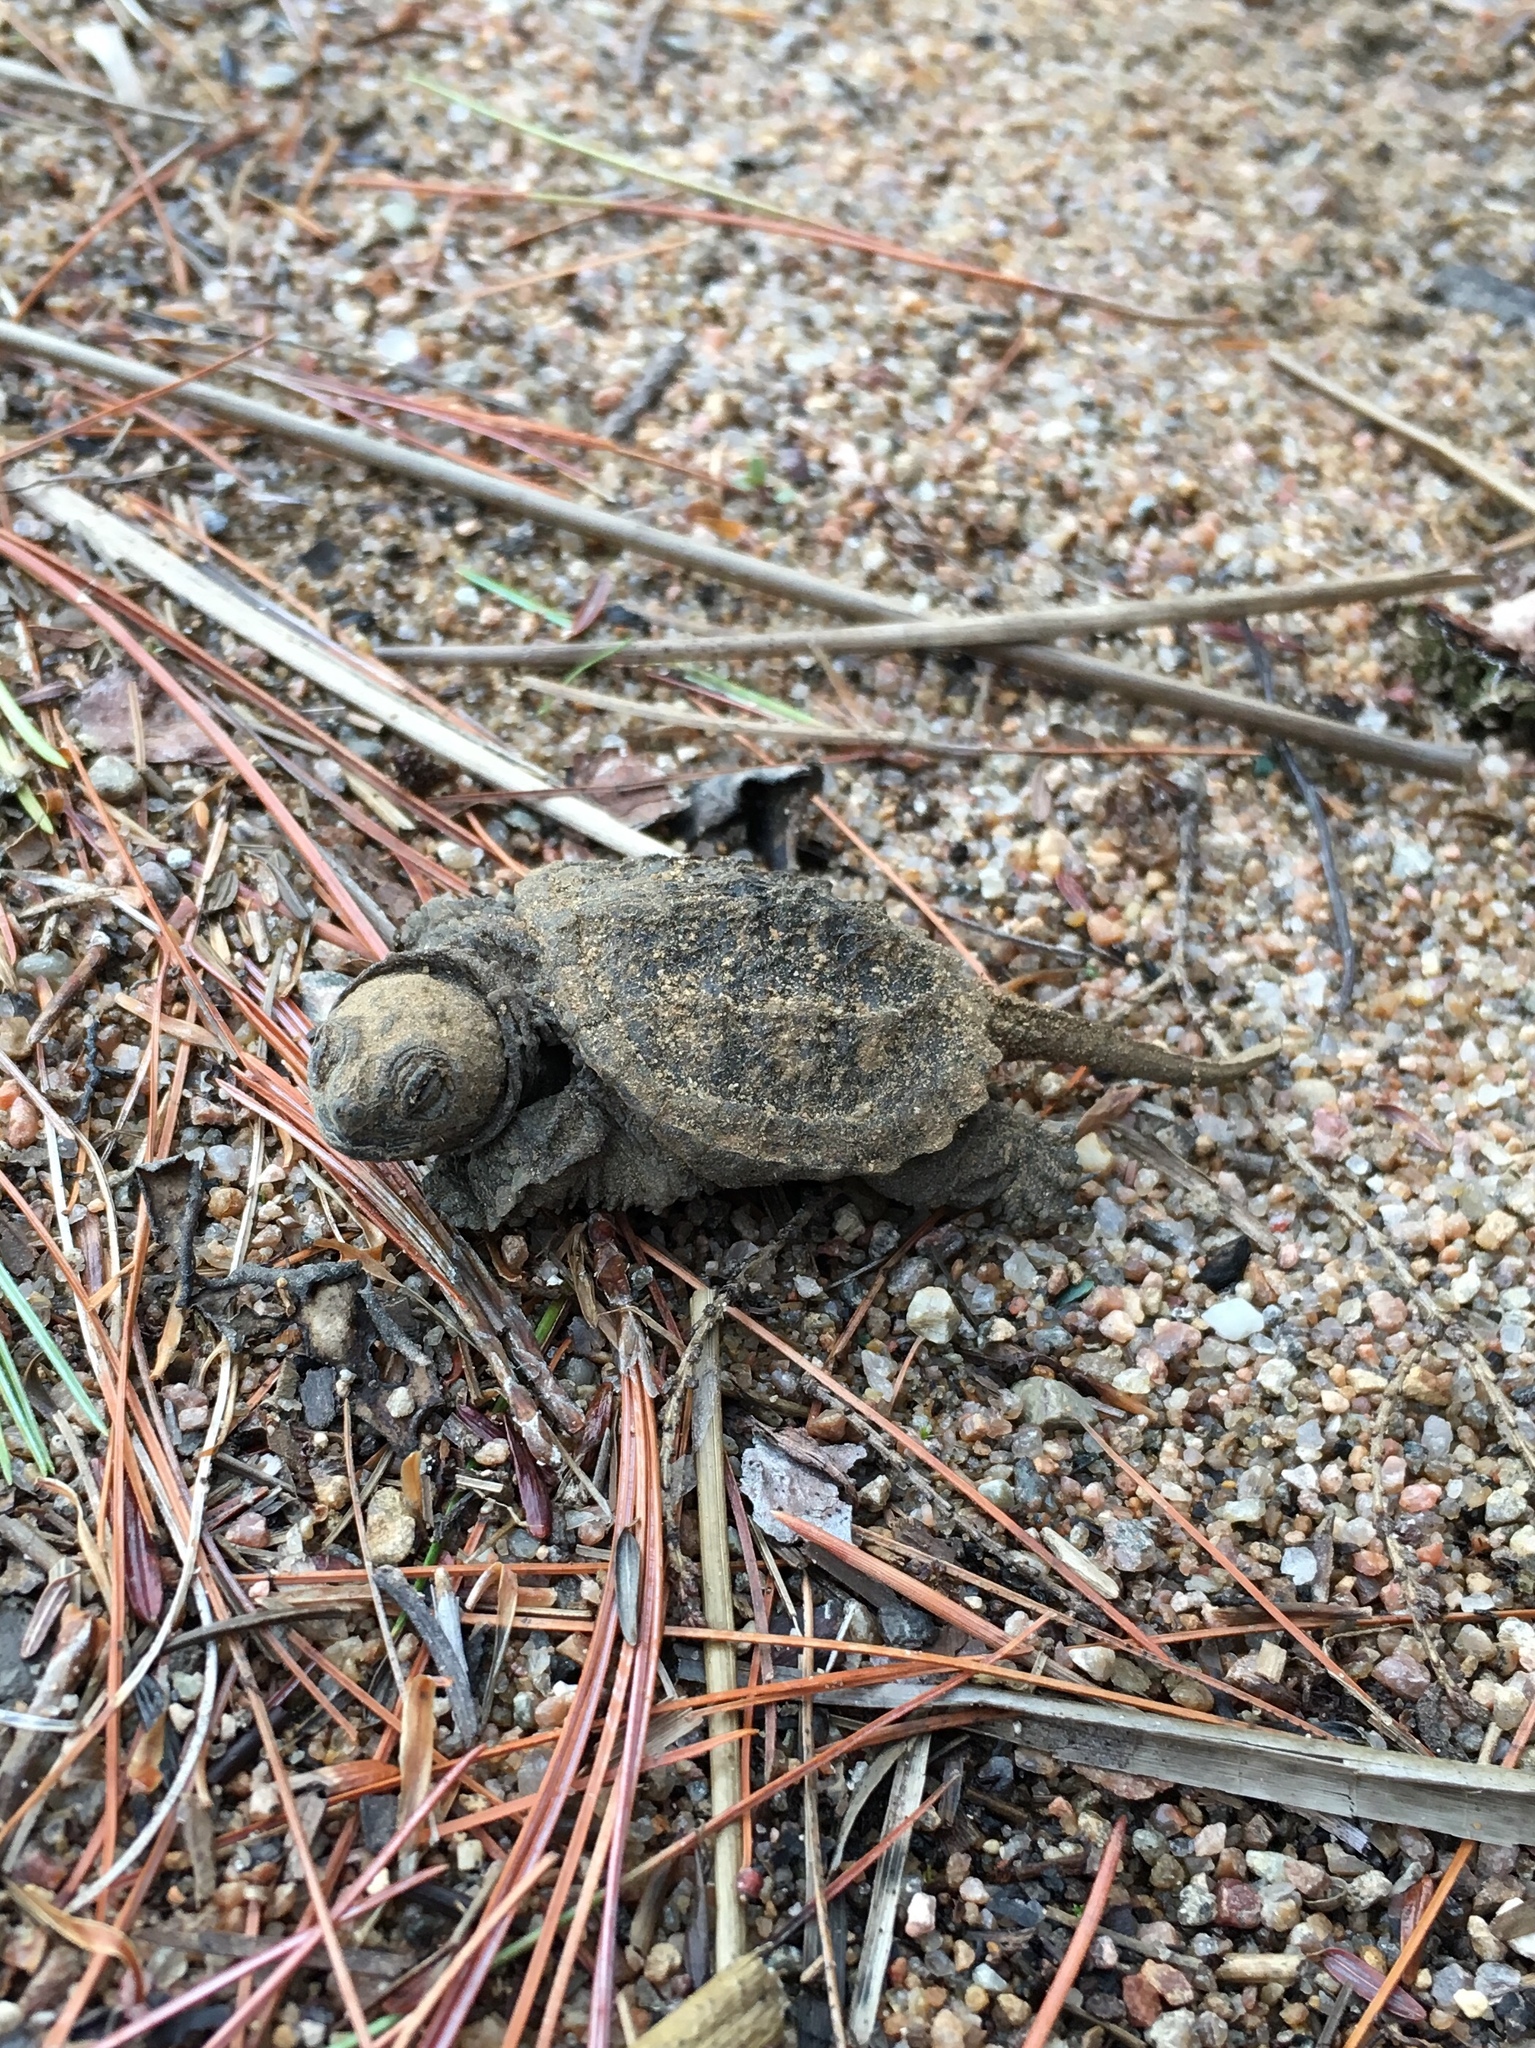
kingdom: Animalia
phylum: Chordata
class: Testudines
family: Chelydridae
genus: Chelydra
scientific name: Chelydra serpentina
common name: Common snapping turtle
